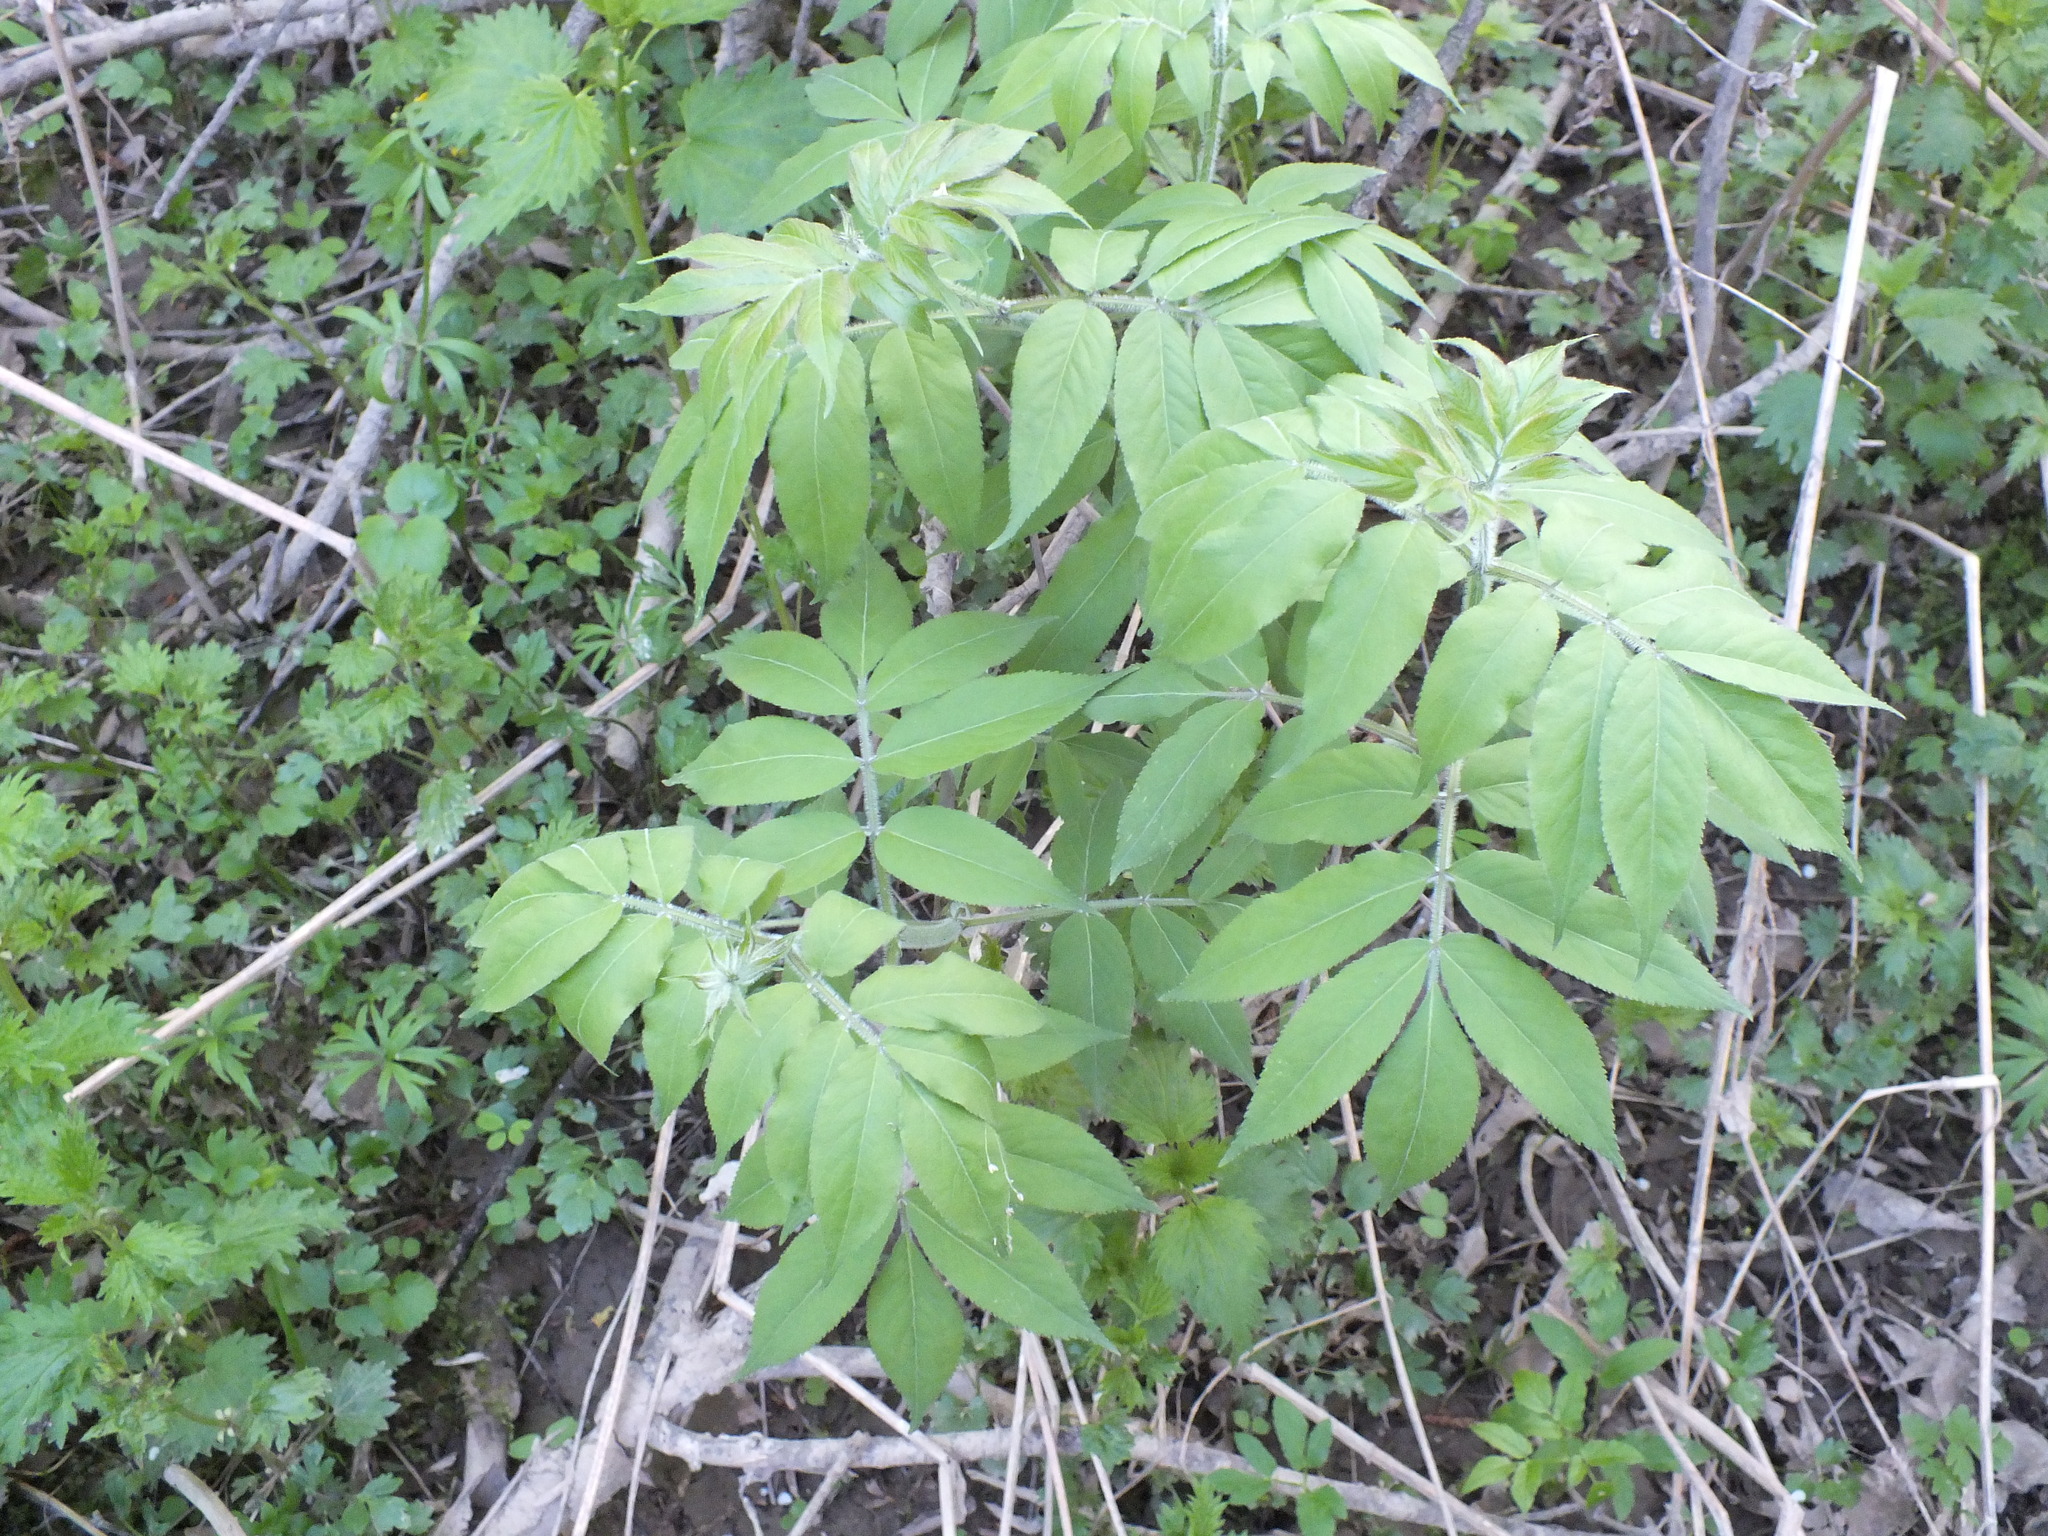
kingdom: Plantae
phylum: Tracheophyta
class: Magnoliopsida
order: Dipsacales
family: Viburnaceae
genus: Sambucus
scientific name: Sambucus sibirica
